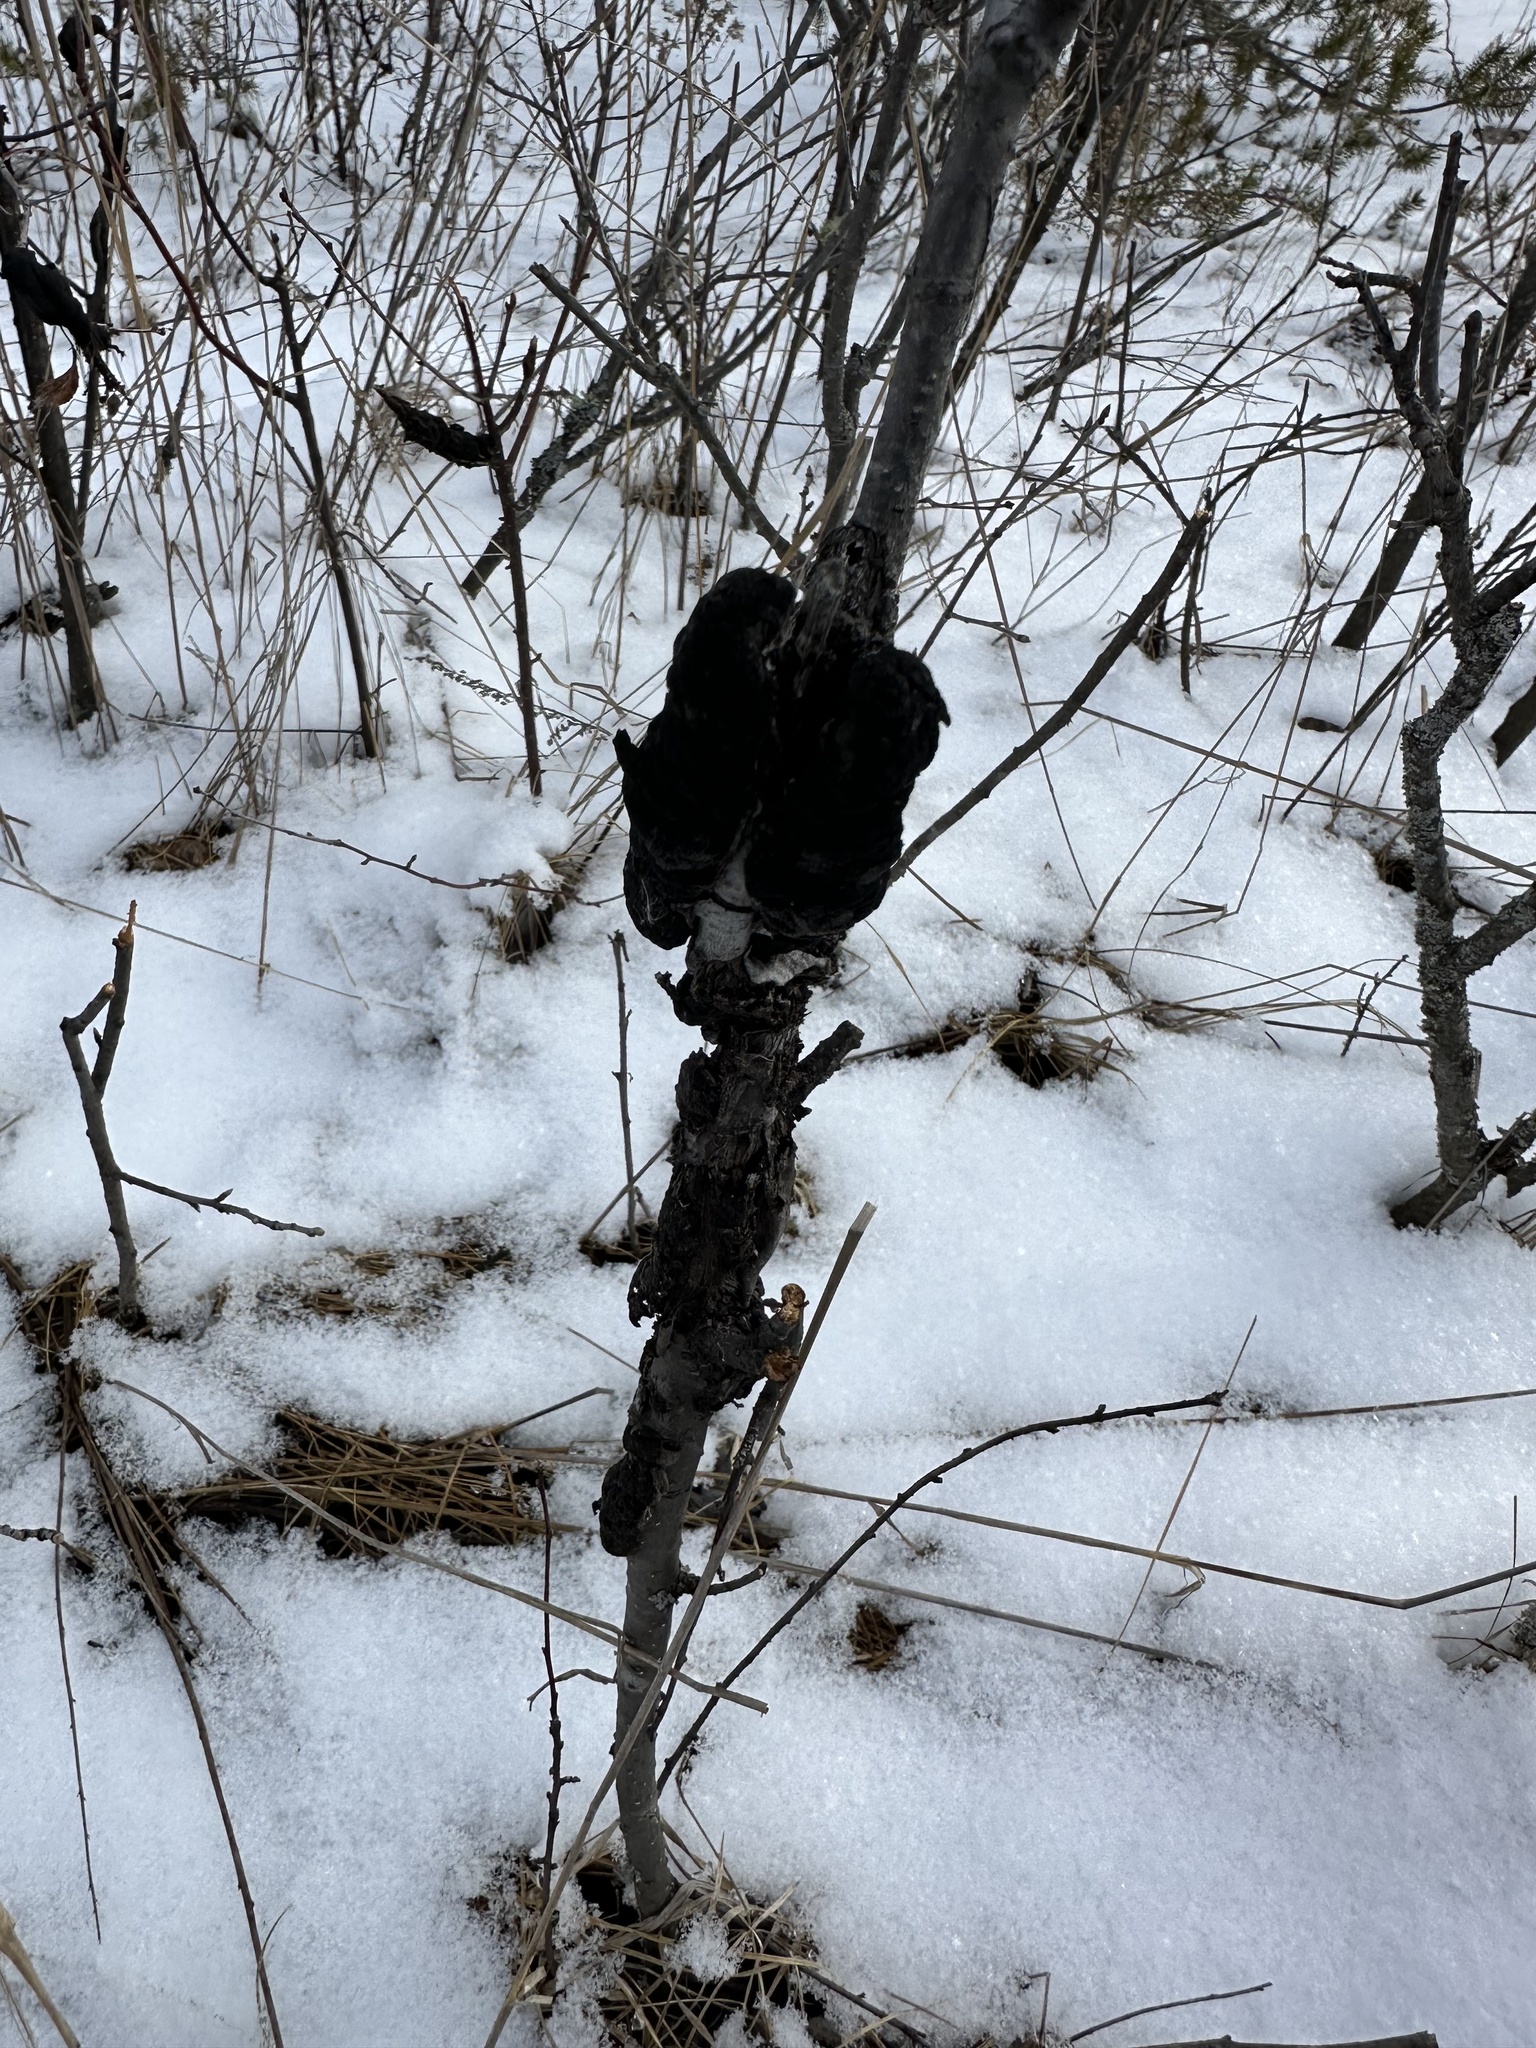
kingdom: Fungi
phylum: Ascomycota
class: Dothideomycetes
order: Venturiales
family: Venturiaceae
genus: Apiosporina
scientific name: Apiosporina morbosa
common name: Black knot
